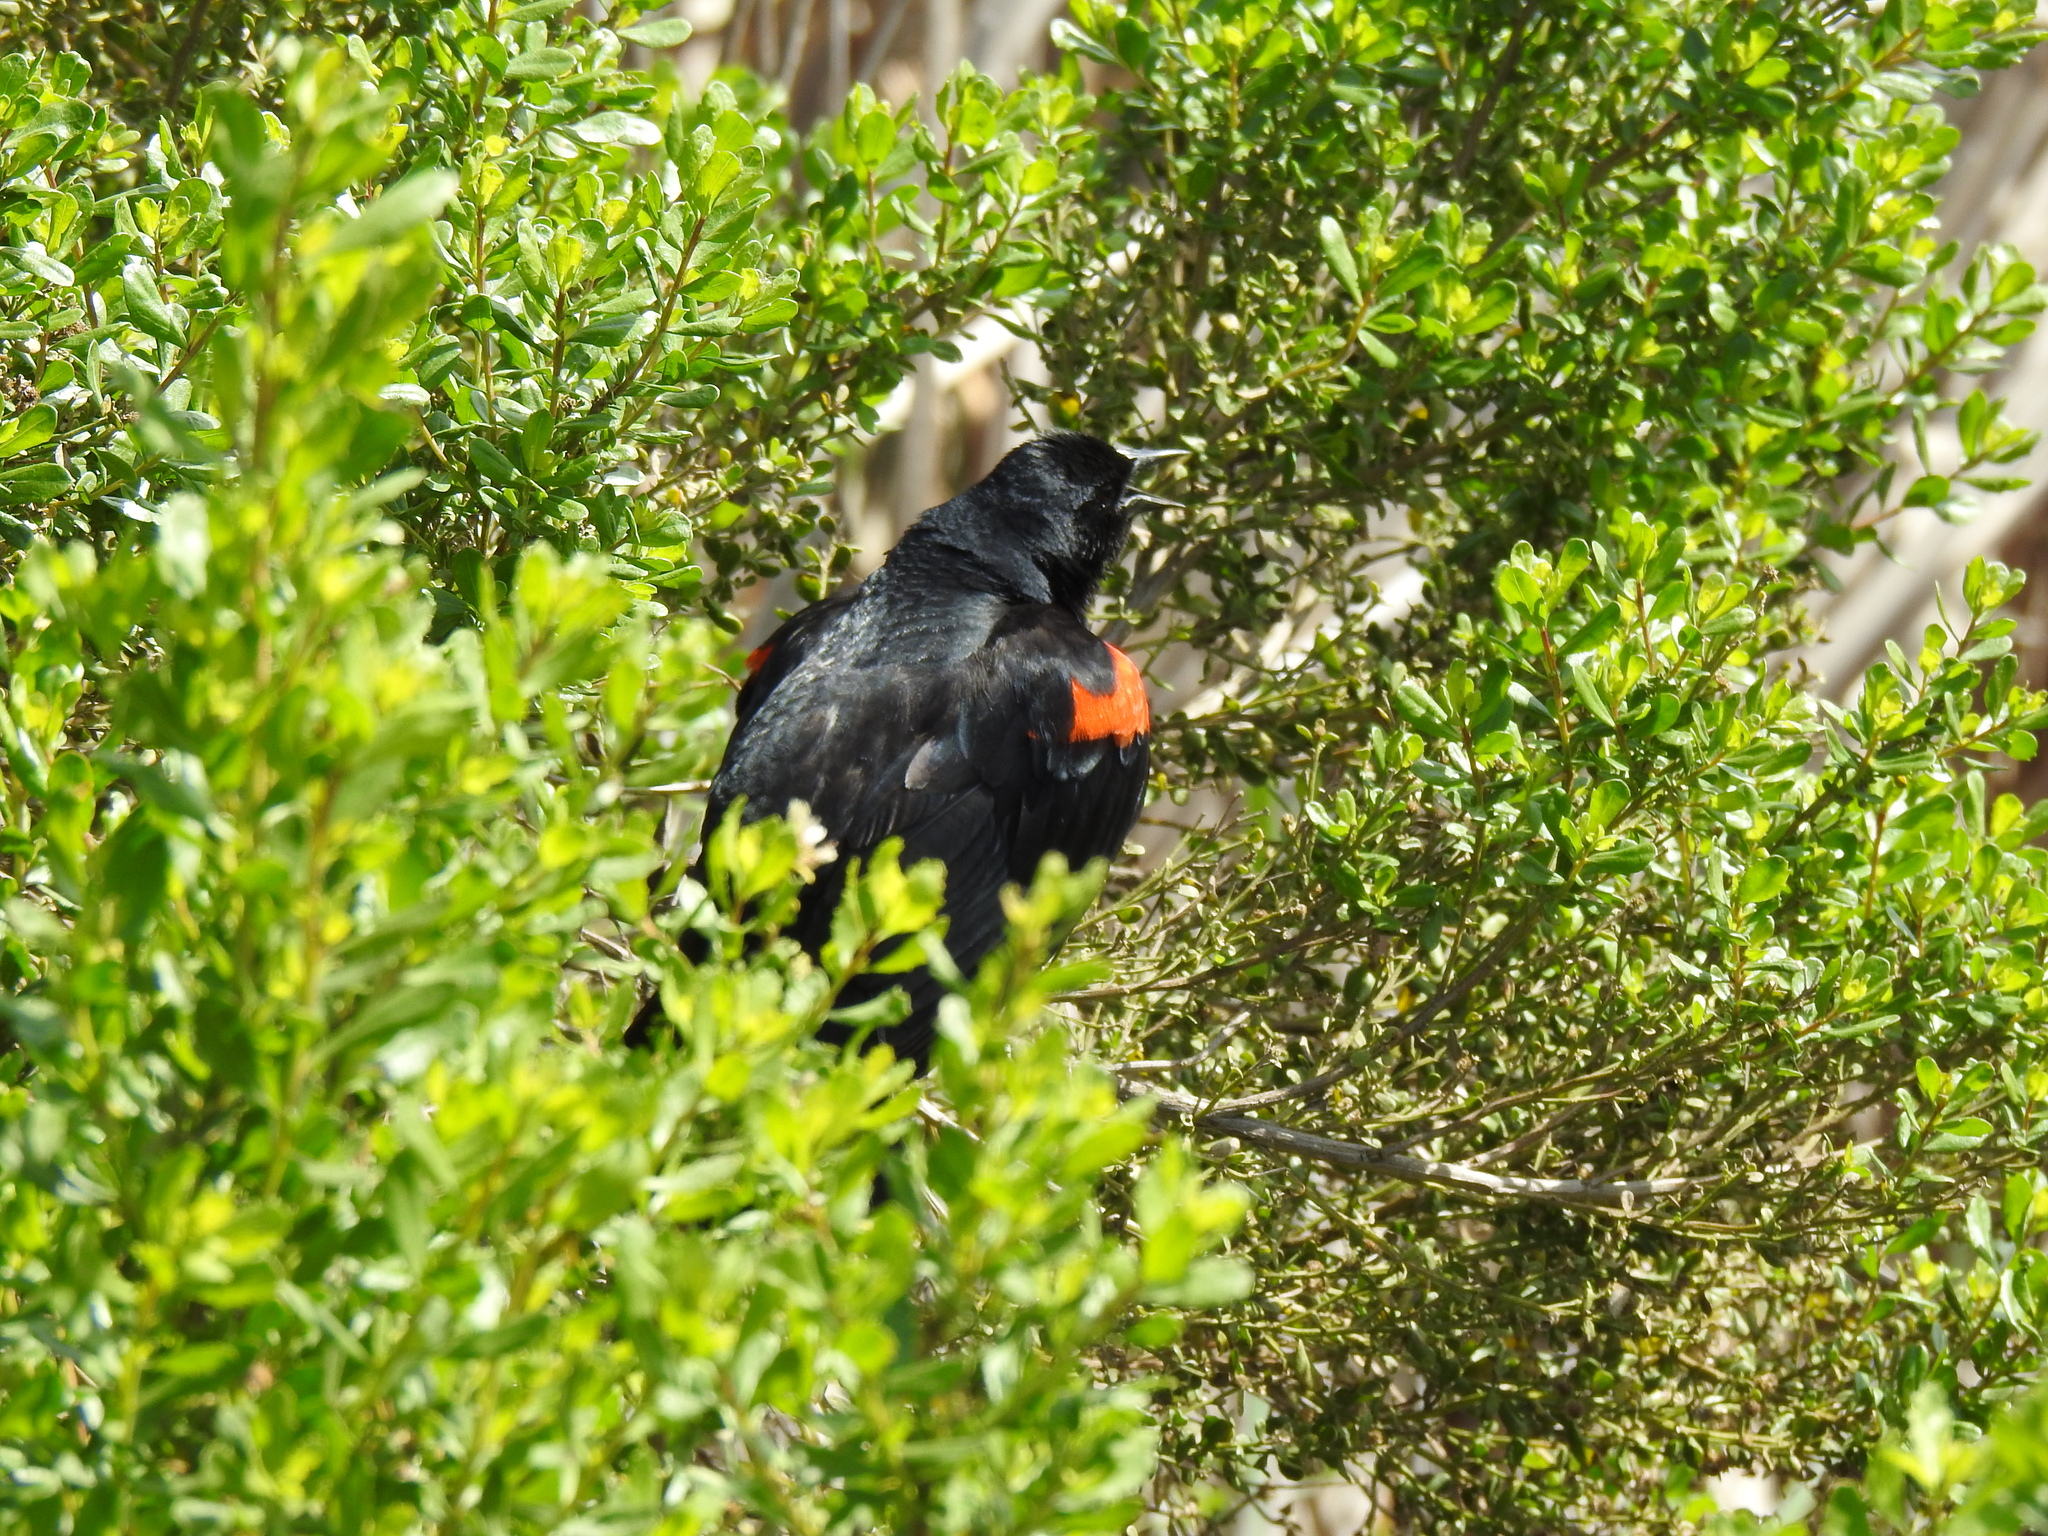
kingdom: Animalia
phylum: Chordata
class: Aves
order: Passeriformes
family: Icteridae
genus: Agelaius
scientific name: Agelaius phoeniceus
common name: Red-winged blackbird
